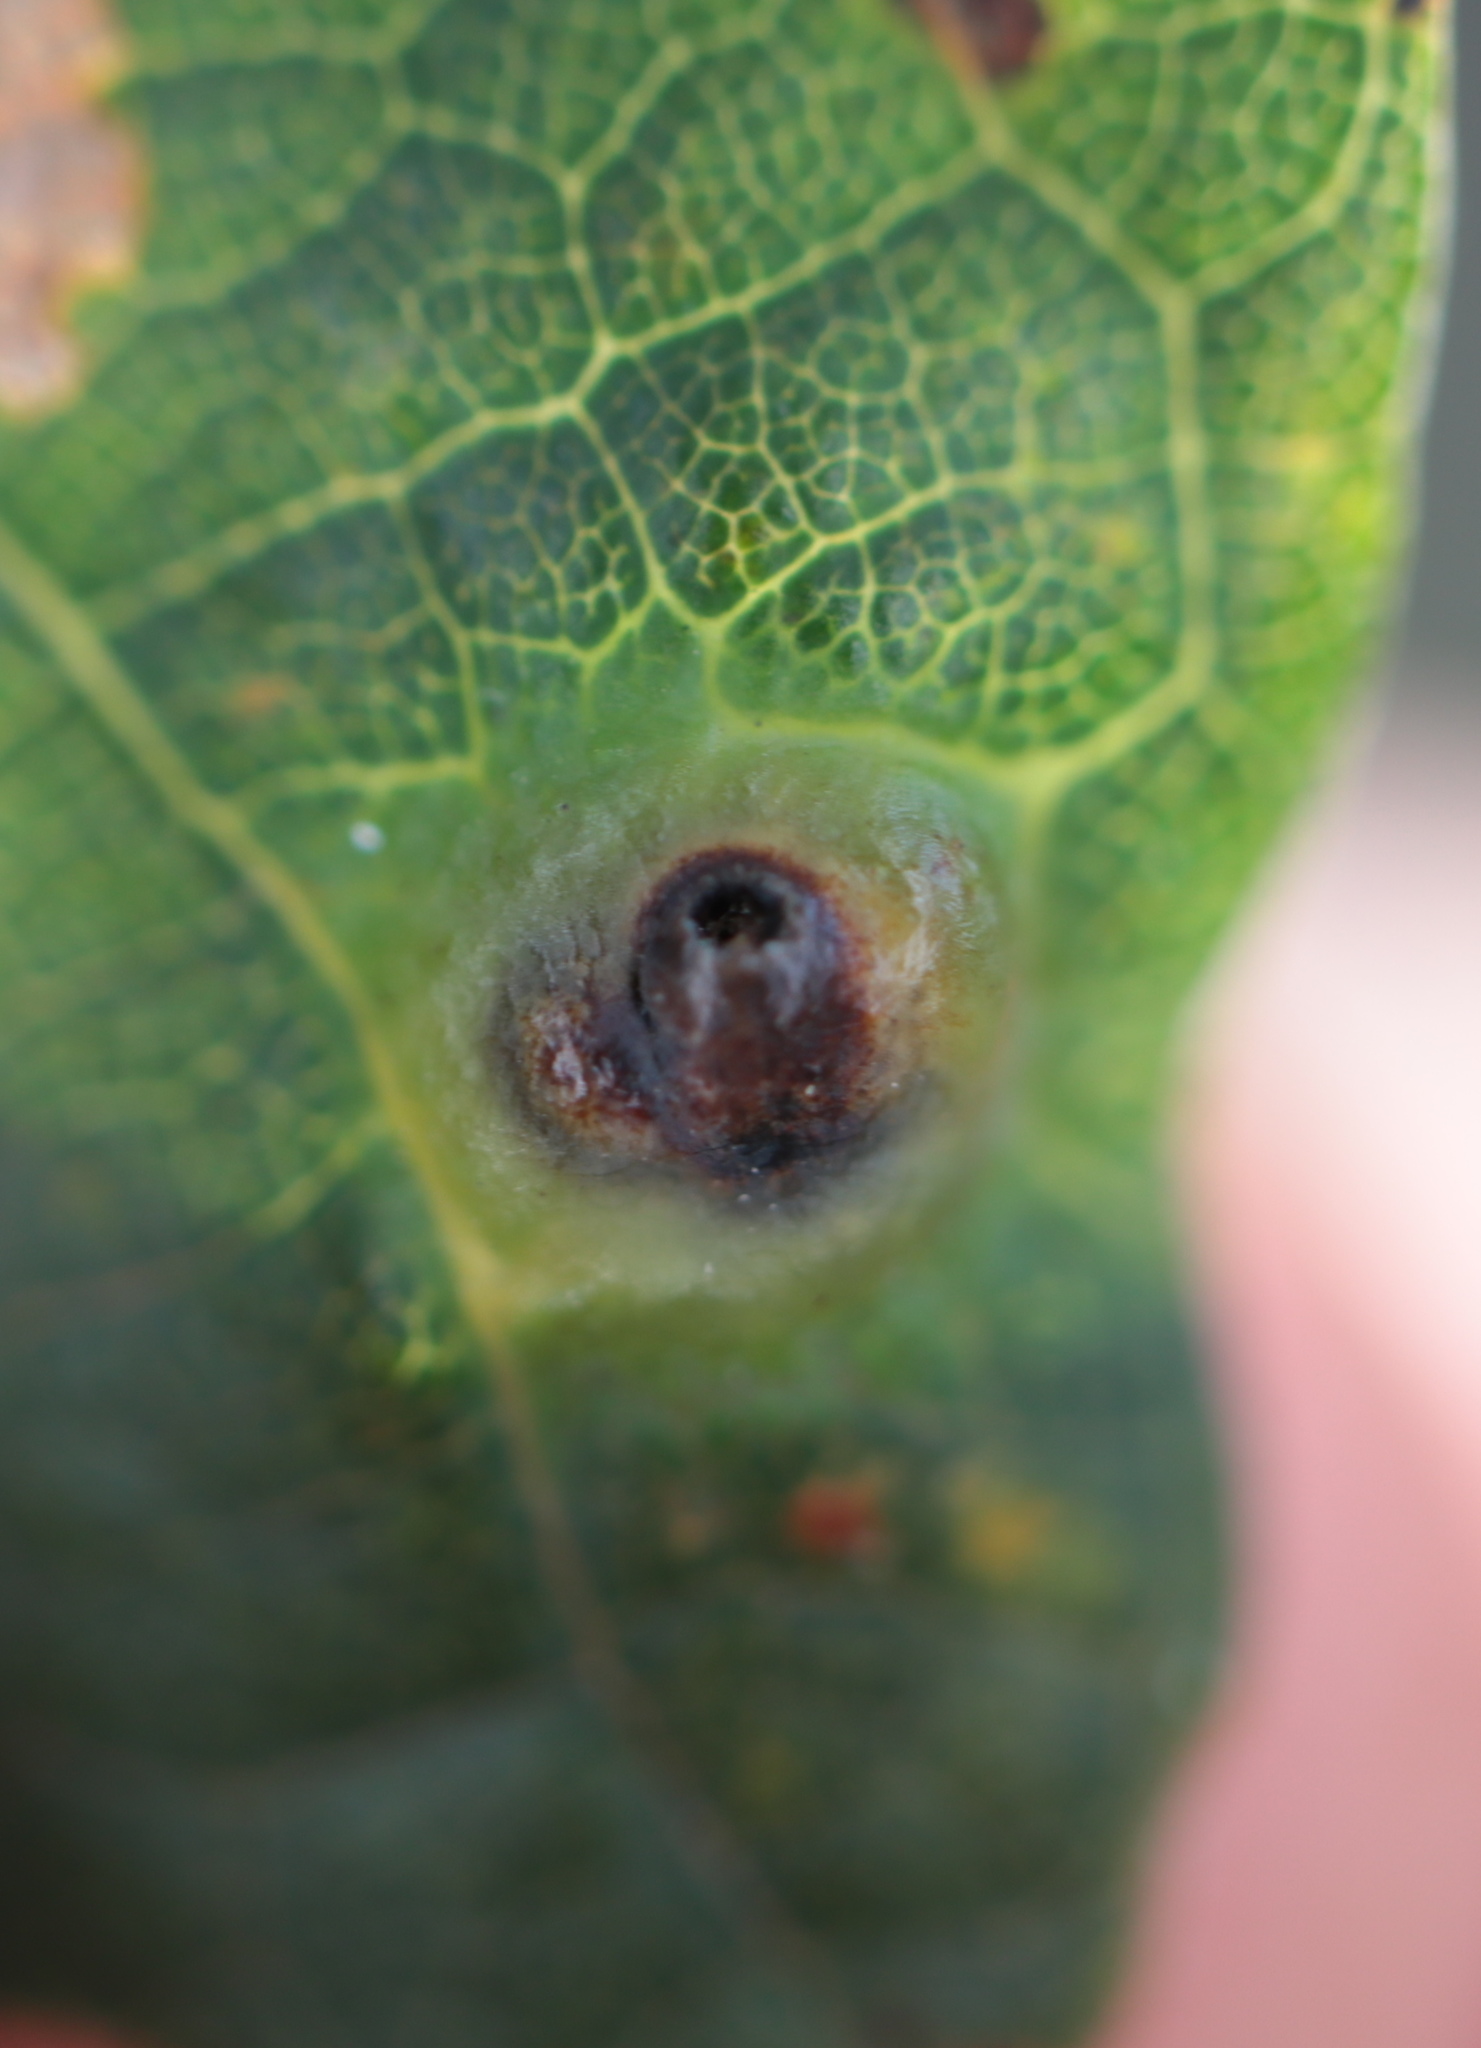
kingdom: Animalia
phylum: Arthropoda
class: Insecta
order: Hymenoptera
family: Cynipidae
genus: Callirhytis
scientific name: Callirhytis
